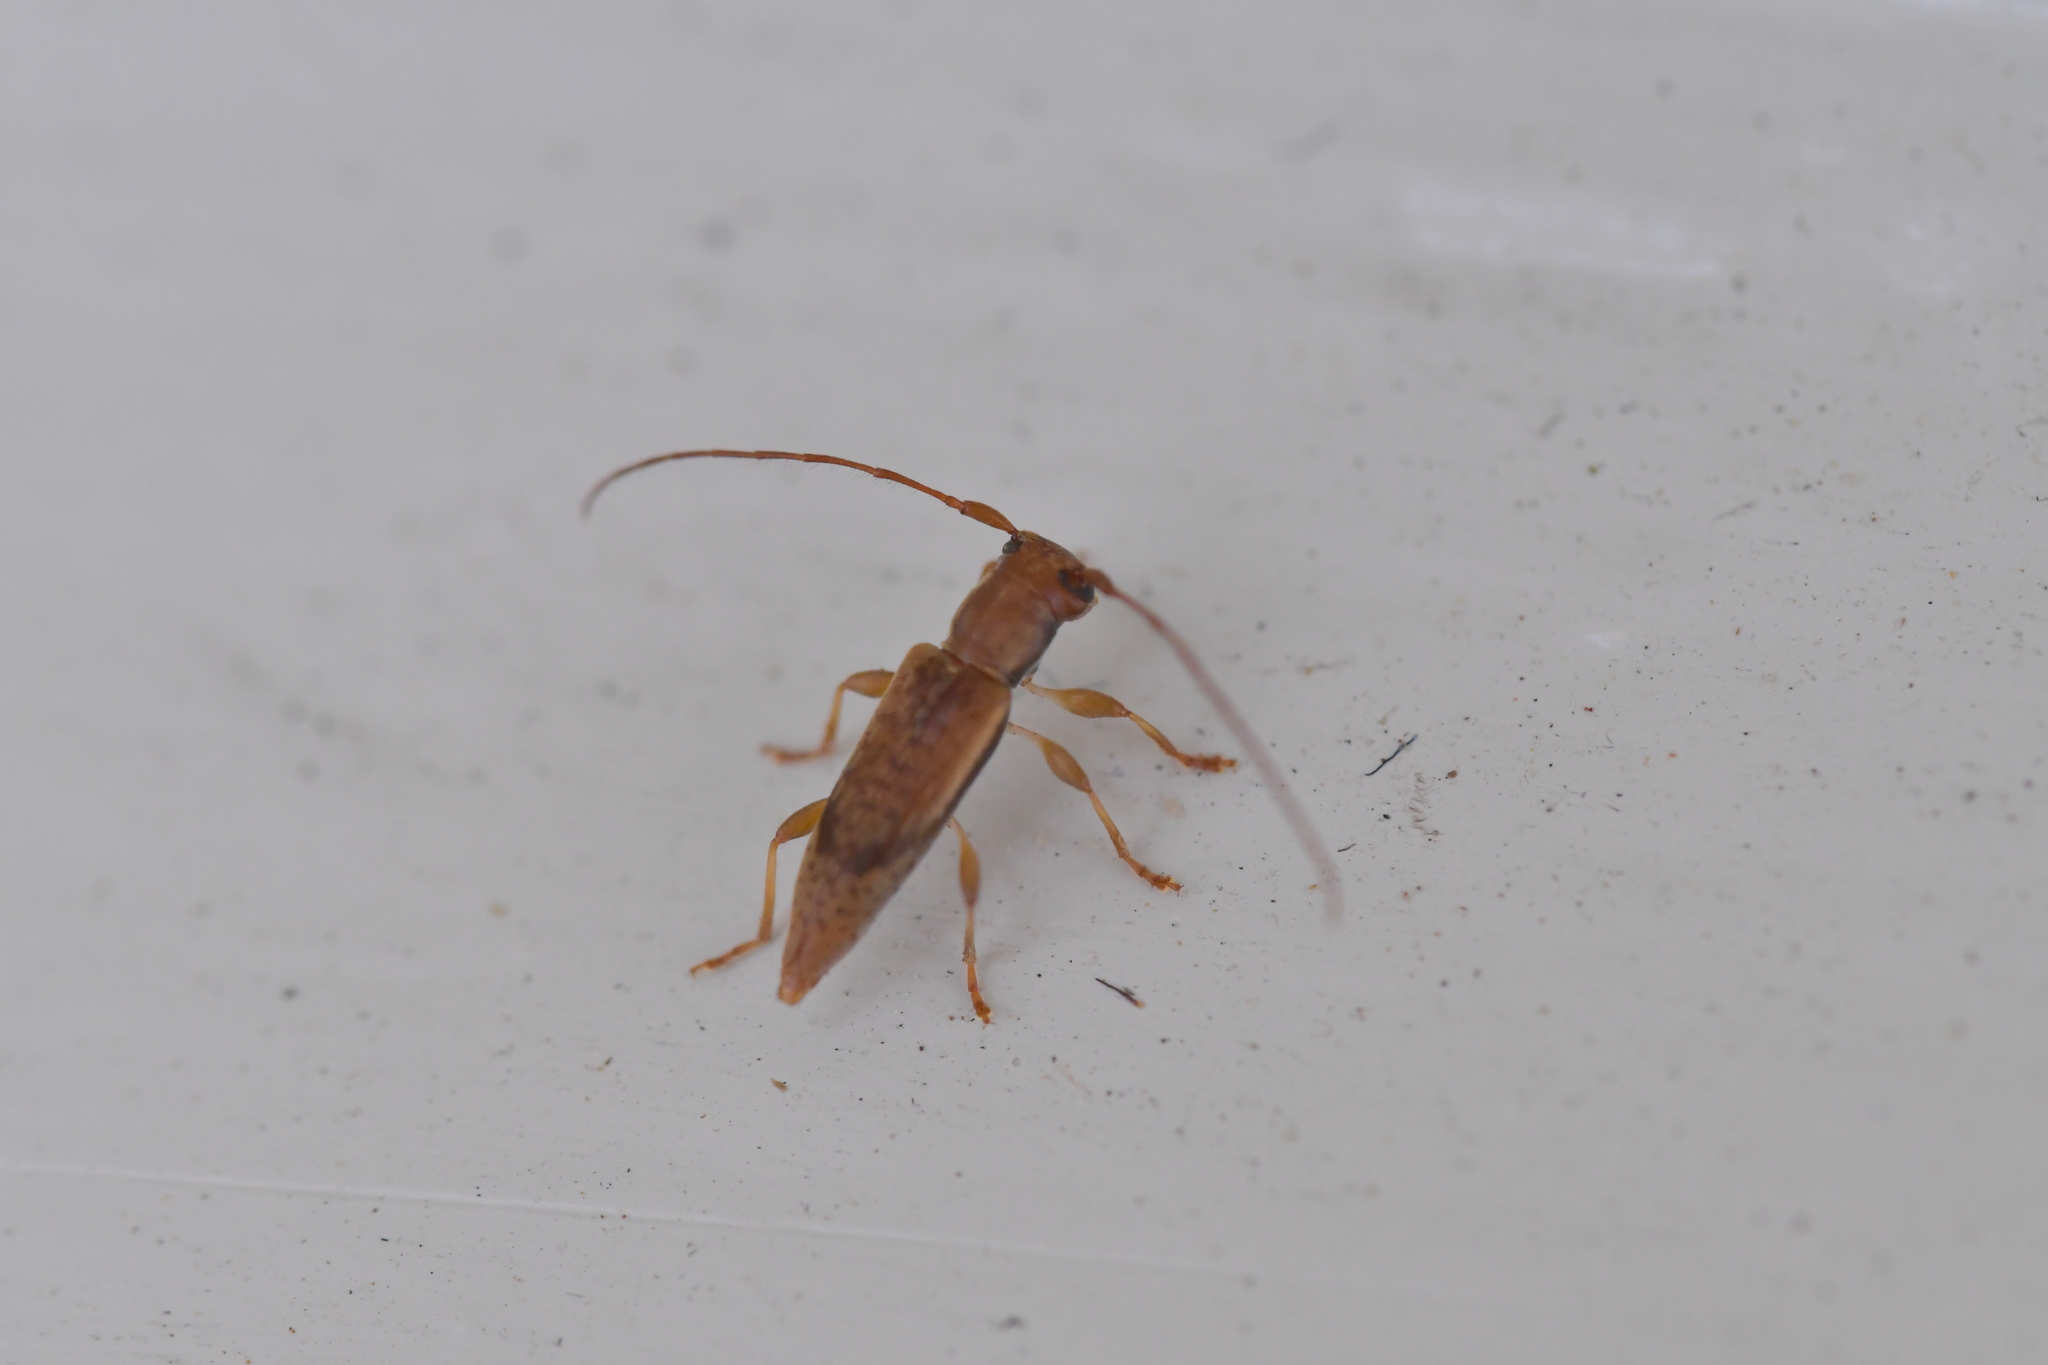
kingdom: Animalia
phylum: Arthropoda
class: Insecta
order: Coleoptera
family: Cerambycidae
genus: Spilotrogia
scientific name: Spilotrogia
